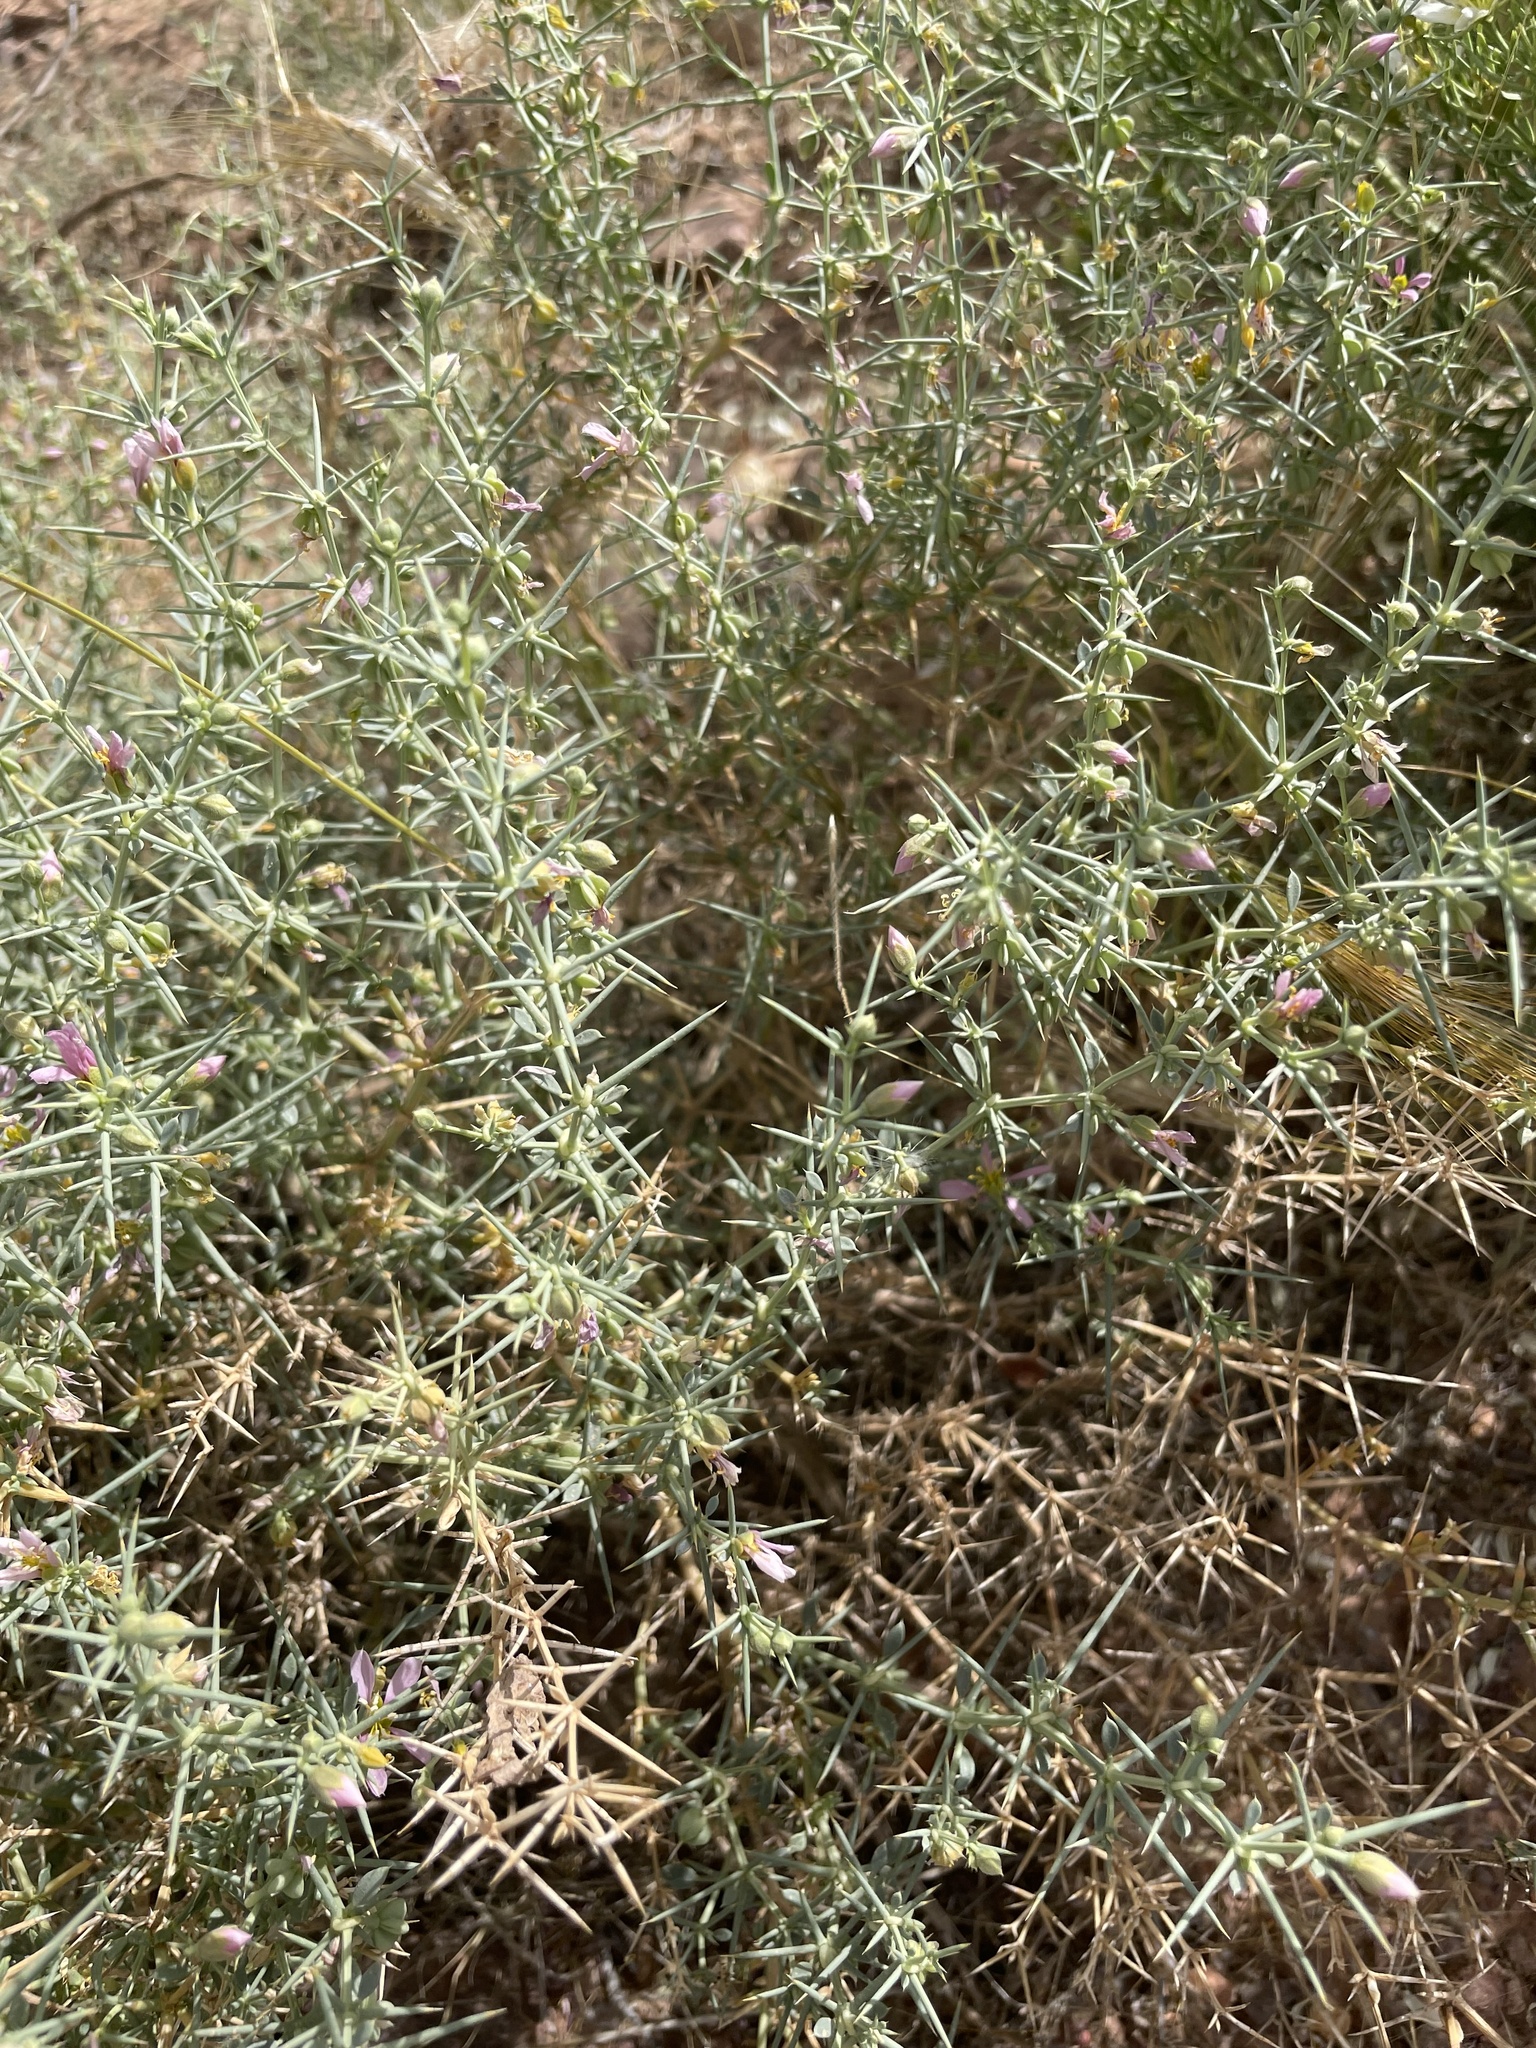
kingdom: Plantae
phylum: Tracheophyta
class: Magnoliopsida
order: Zygophyllales
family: Zygophyllaceae
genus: Fagonia
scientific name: Fagonia zilloides
